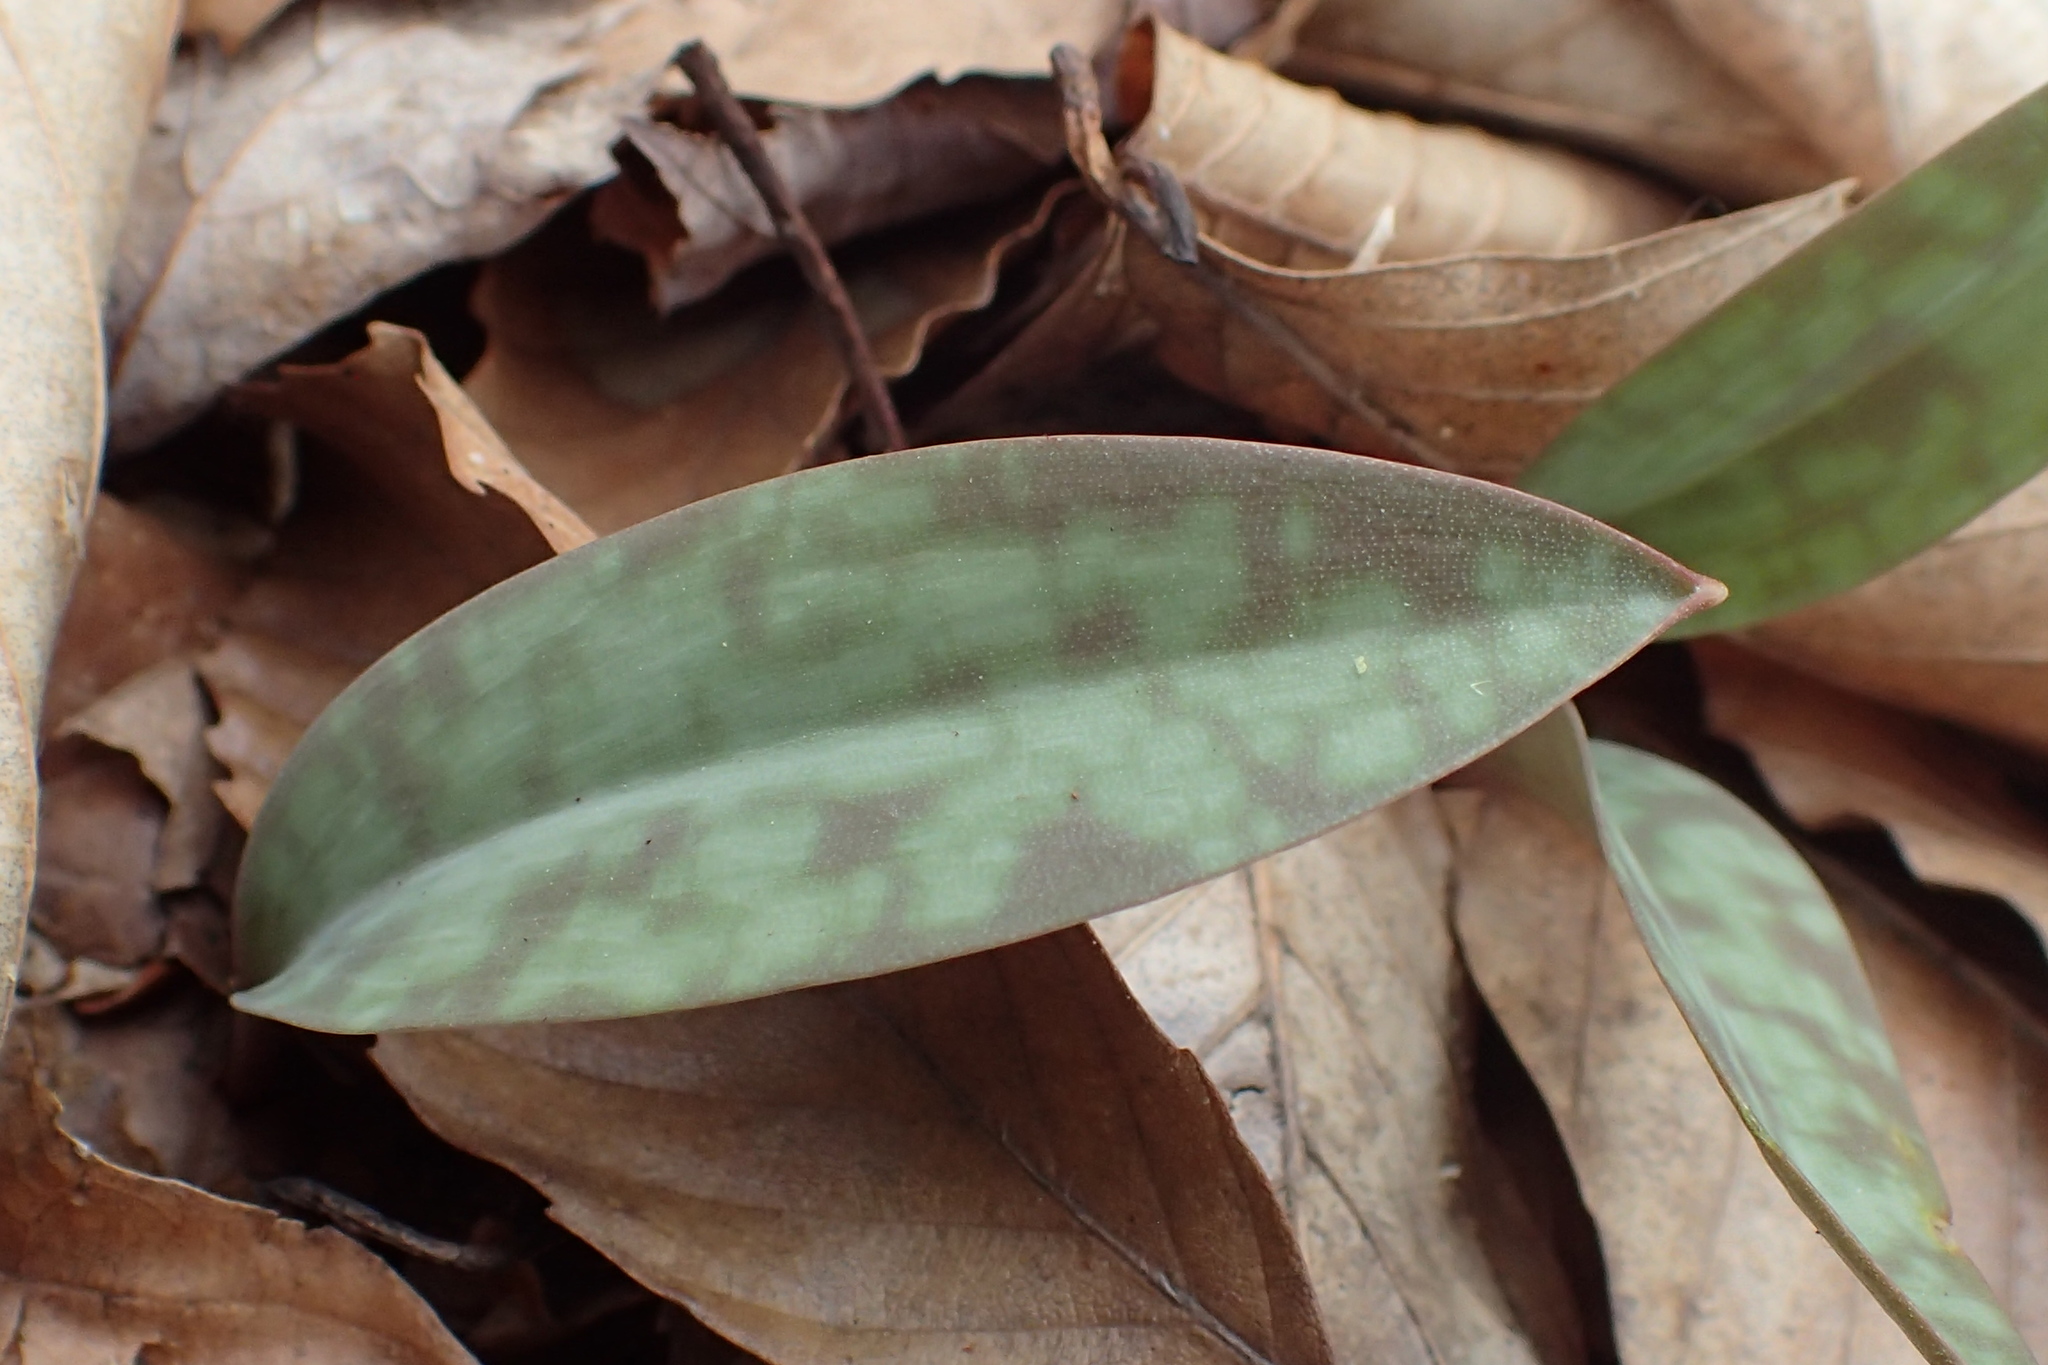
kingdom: Plantae
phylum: Tracheophyta
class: Liliopsida
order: Liliales
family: Liliaceae
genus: Erythronium
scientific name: Erythronium americanum
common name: Yellow adder's-tongue
